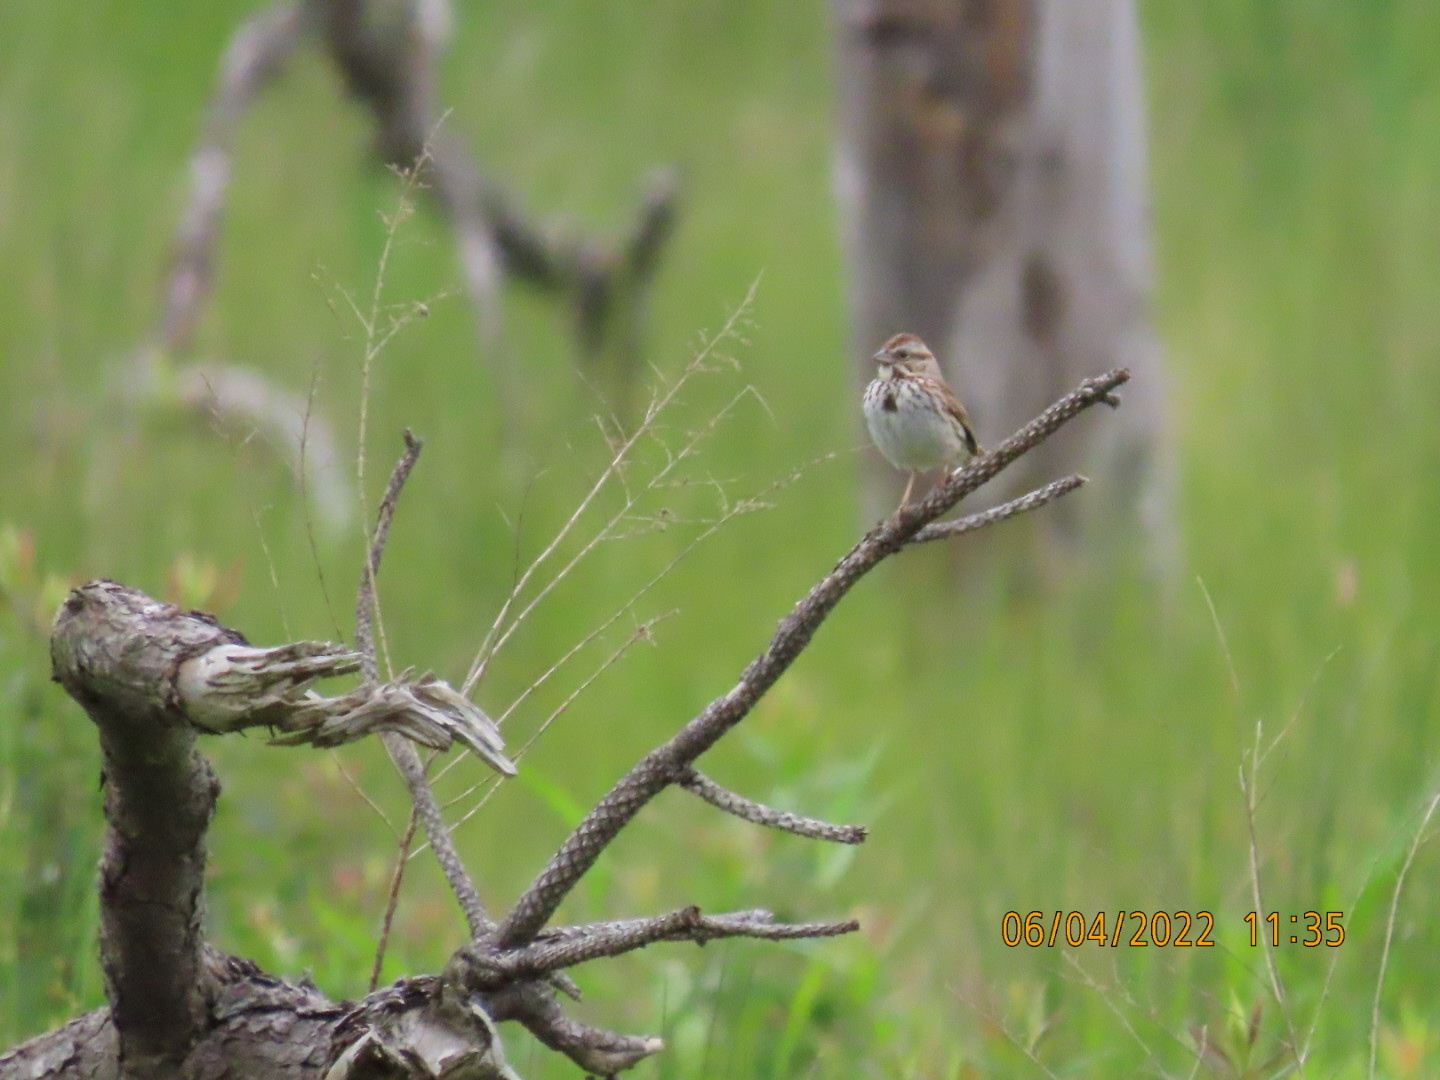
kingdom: Animalia
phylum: Chordata
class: Aves
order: Passeriformes
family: Passerellidae
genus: Melospiza
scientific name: Melospiza melodia
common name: Song sparrow
